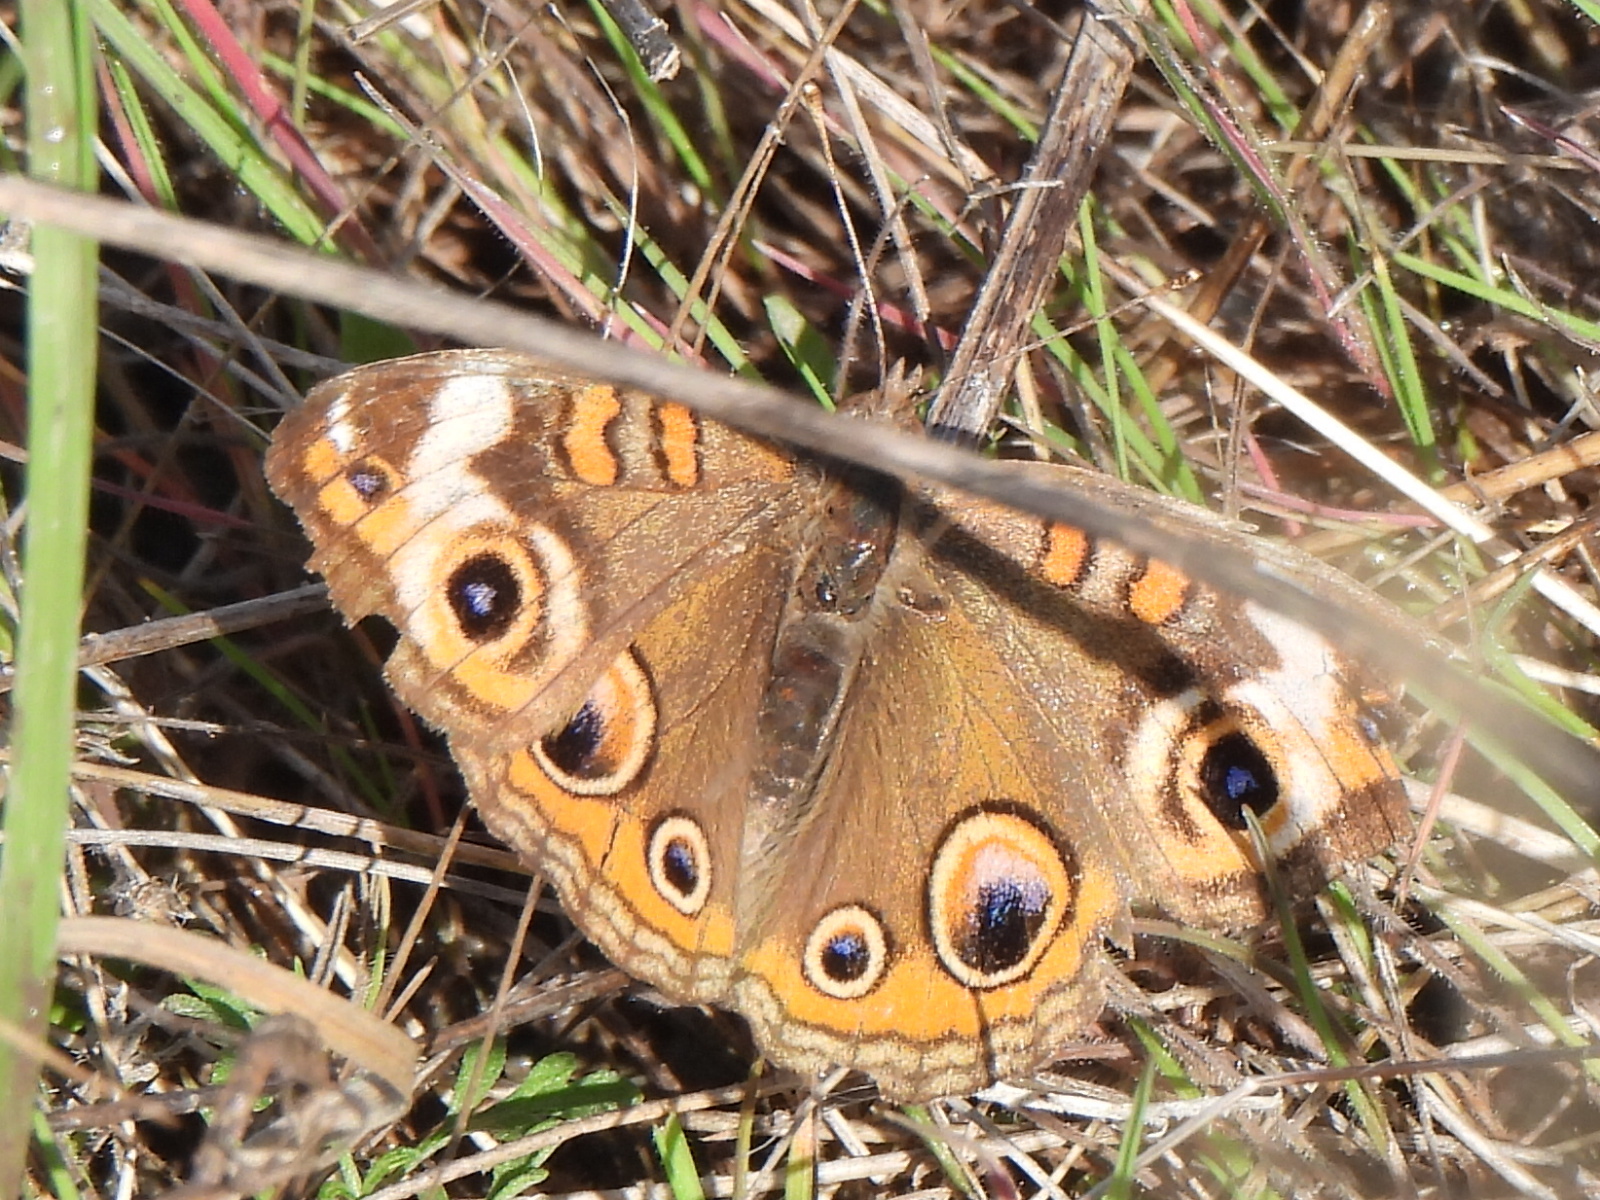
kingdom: Animalia
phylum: Arthropoda
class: Insecta
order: Lepidoptera
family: Nymphalidae
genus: Junonia
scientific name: Junonia coenia
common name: Common buckeye
